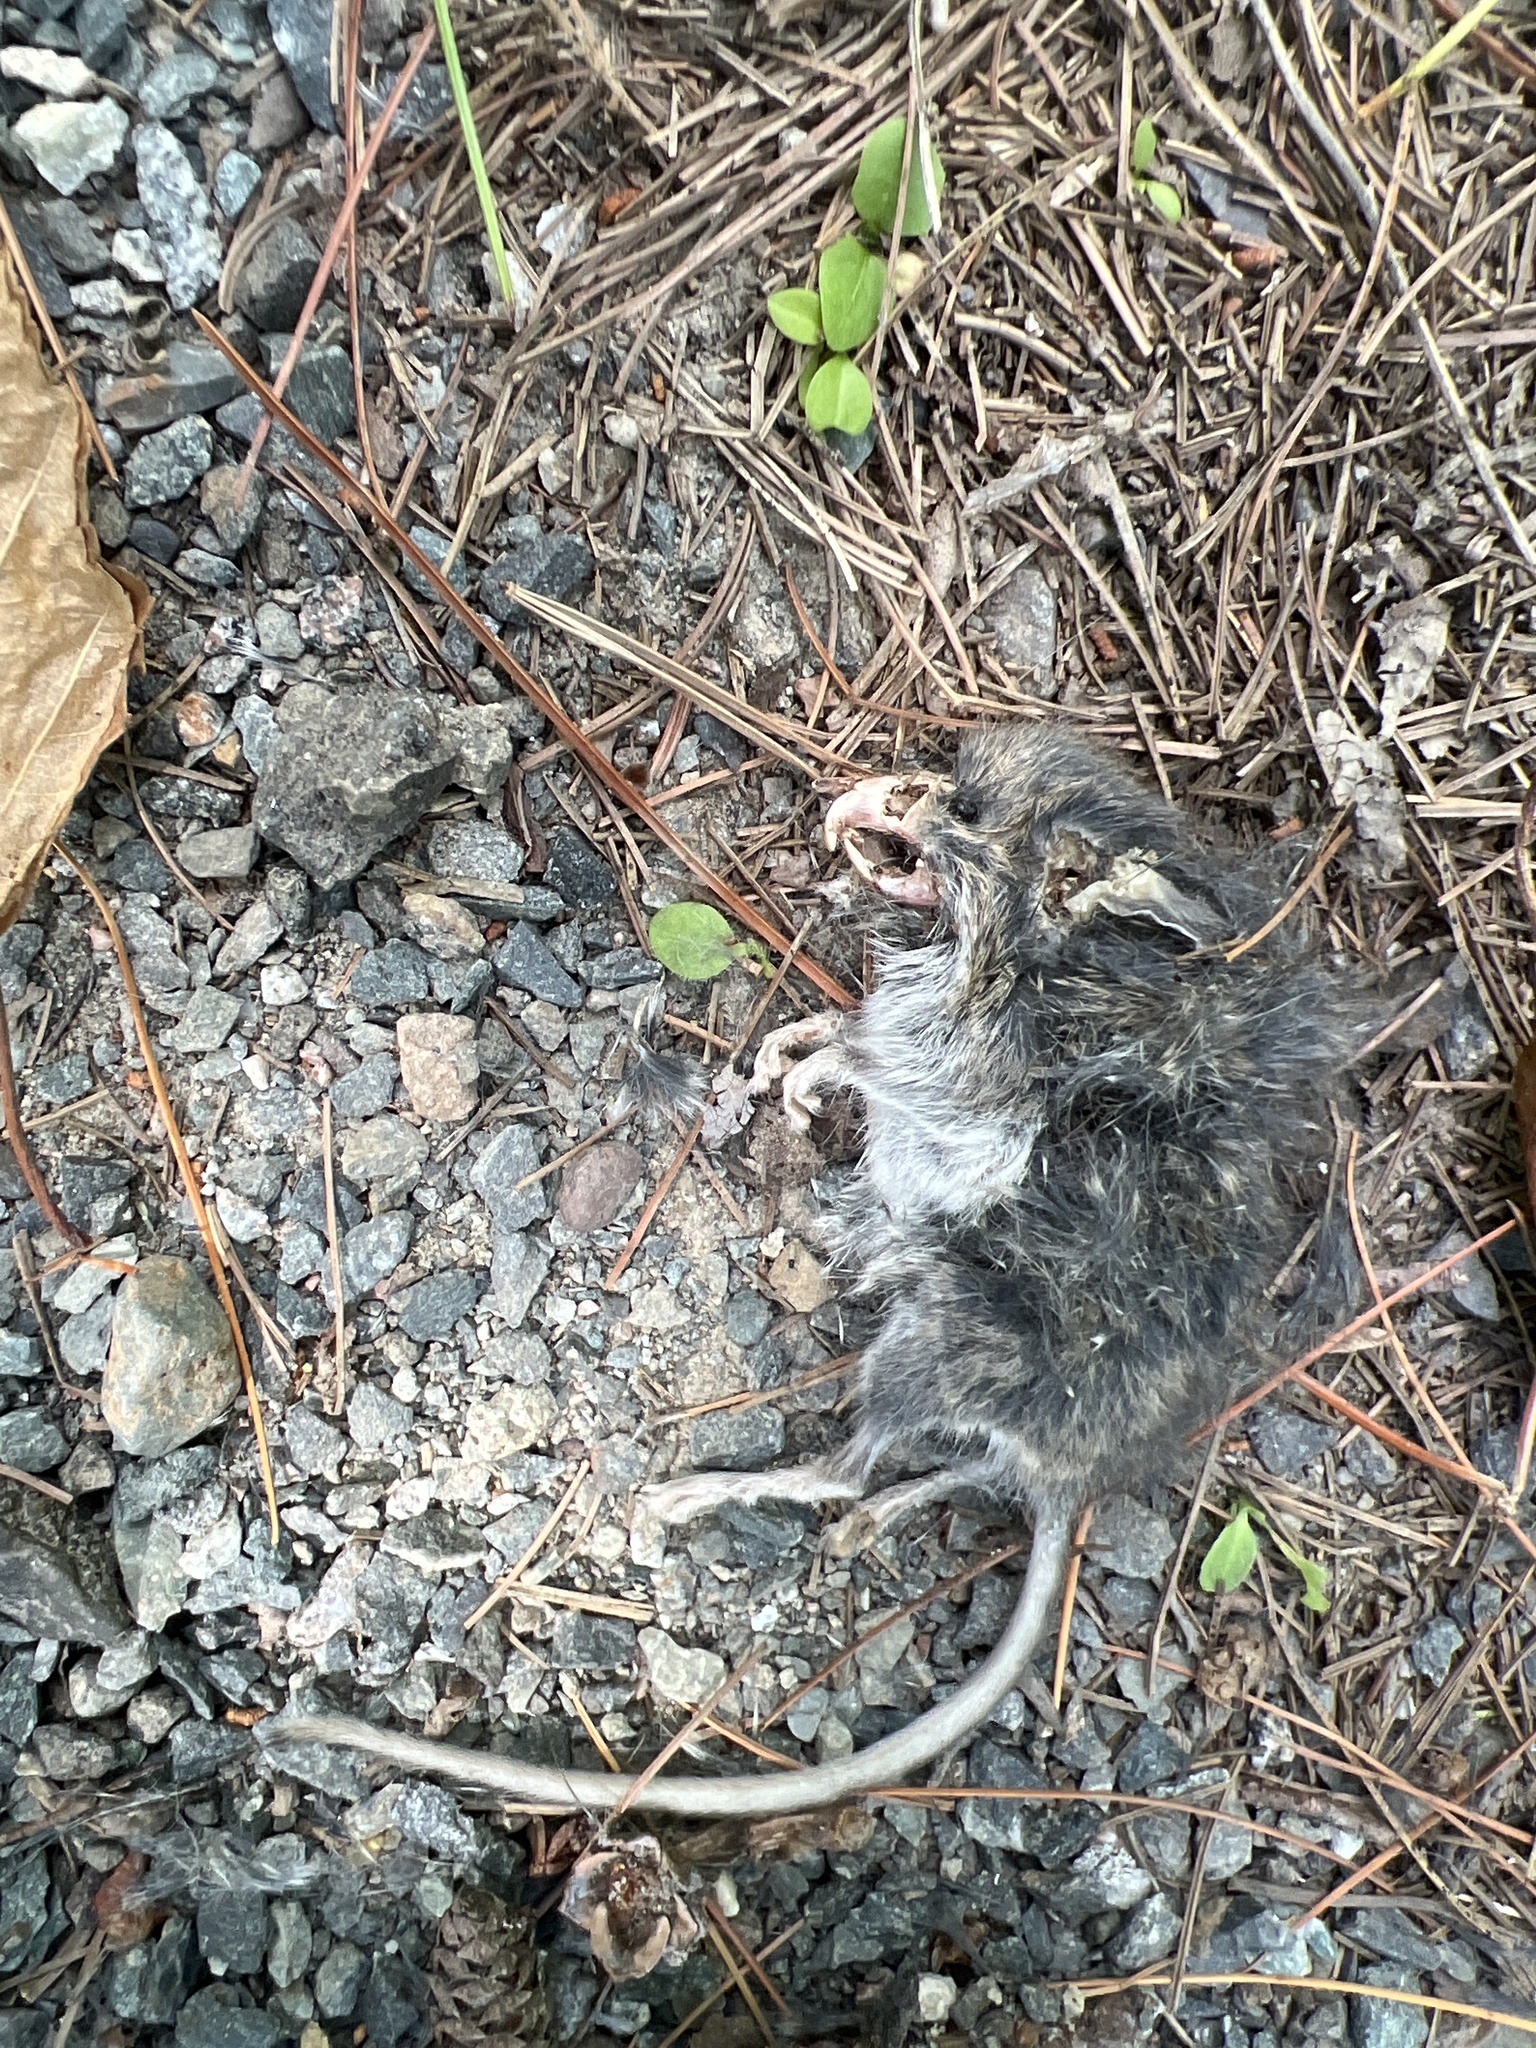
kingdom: Animalia
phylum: Chordata
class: Mammalia
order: Rodentia
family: Cricetidae
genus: Peromyscus
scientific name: Peromyscus maniculatus
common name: Deer mouse
